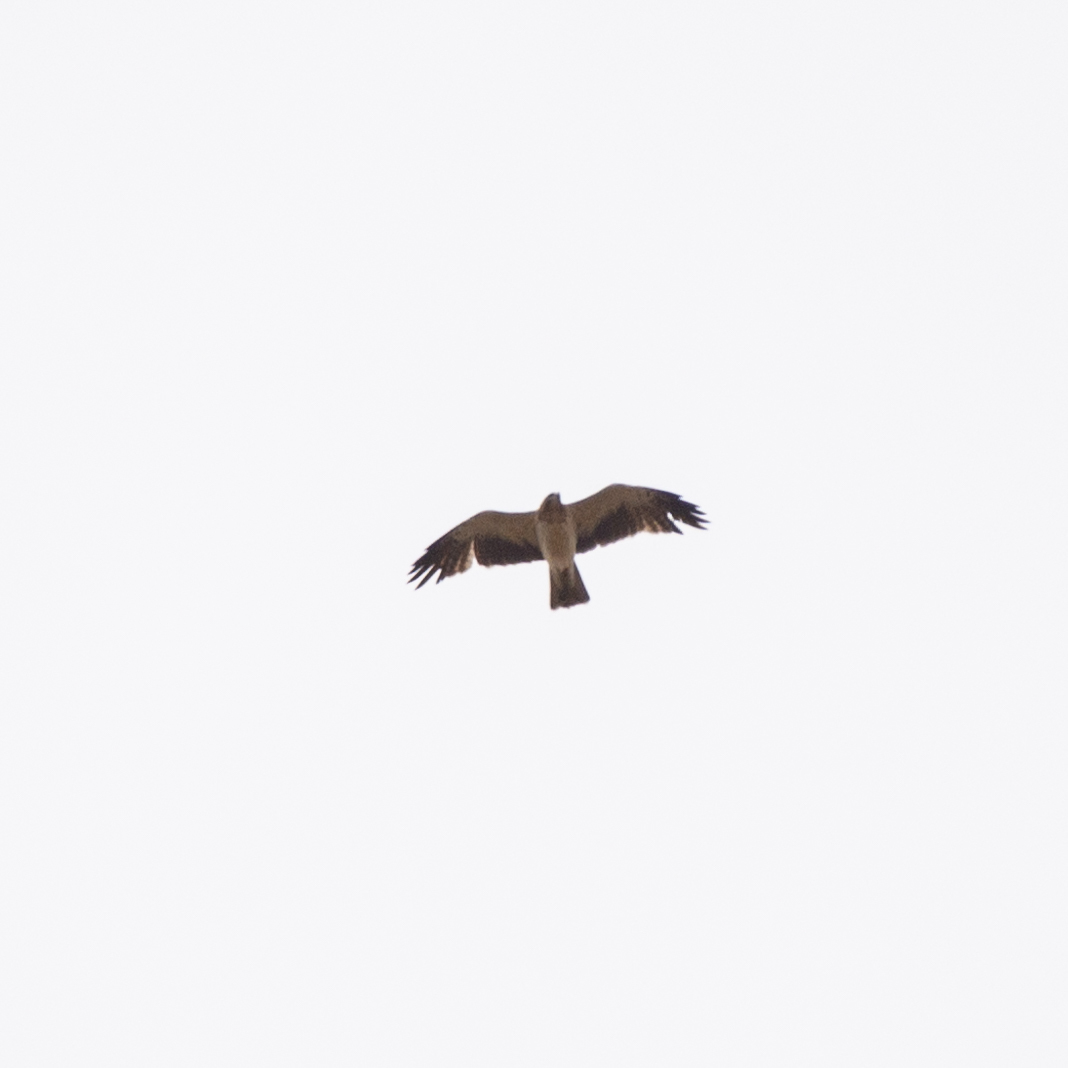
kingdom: Animalia
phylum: Chordata
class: Aves
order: Accipitriformes
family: Accipitridae
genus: Hieraaetus
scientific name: Hieraaetus pennatus
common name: Booted eagle
